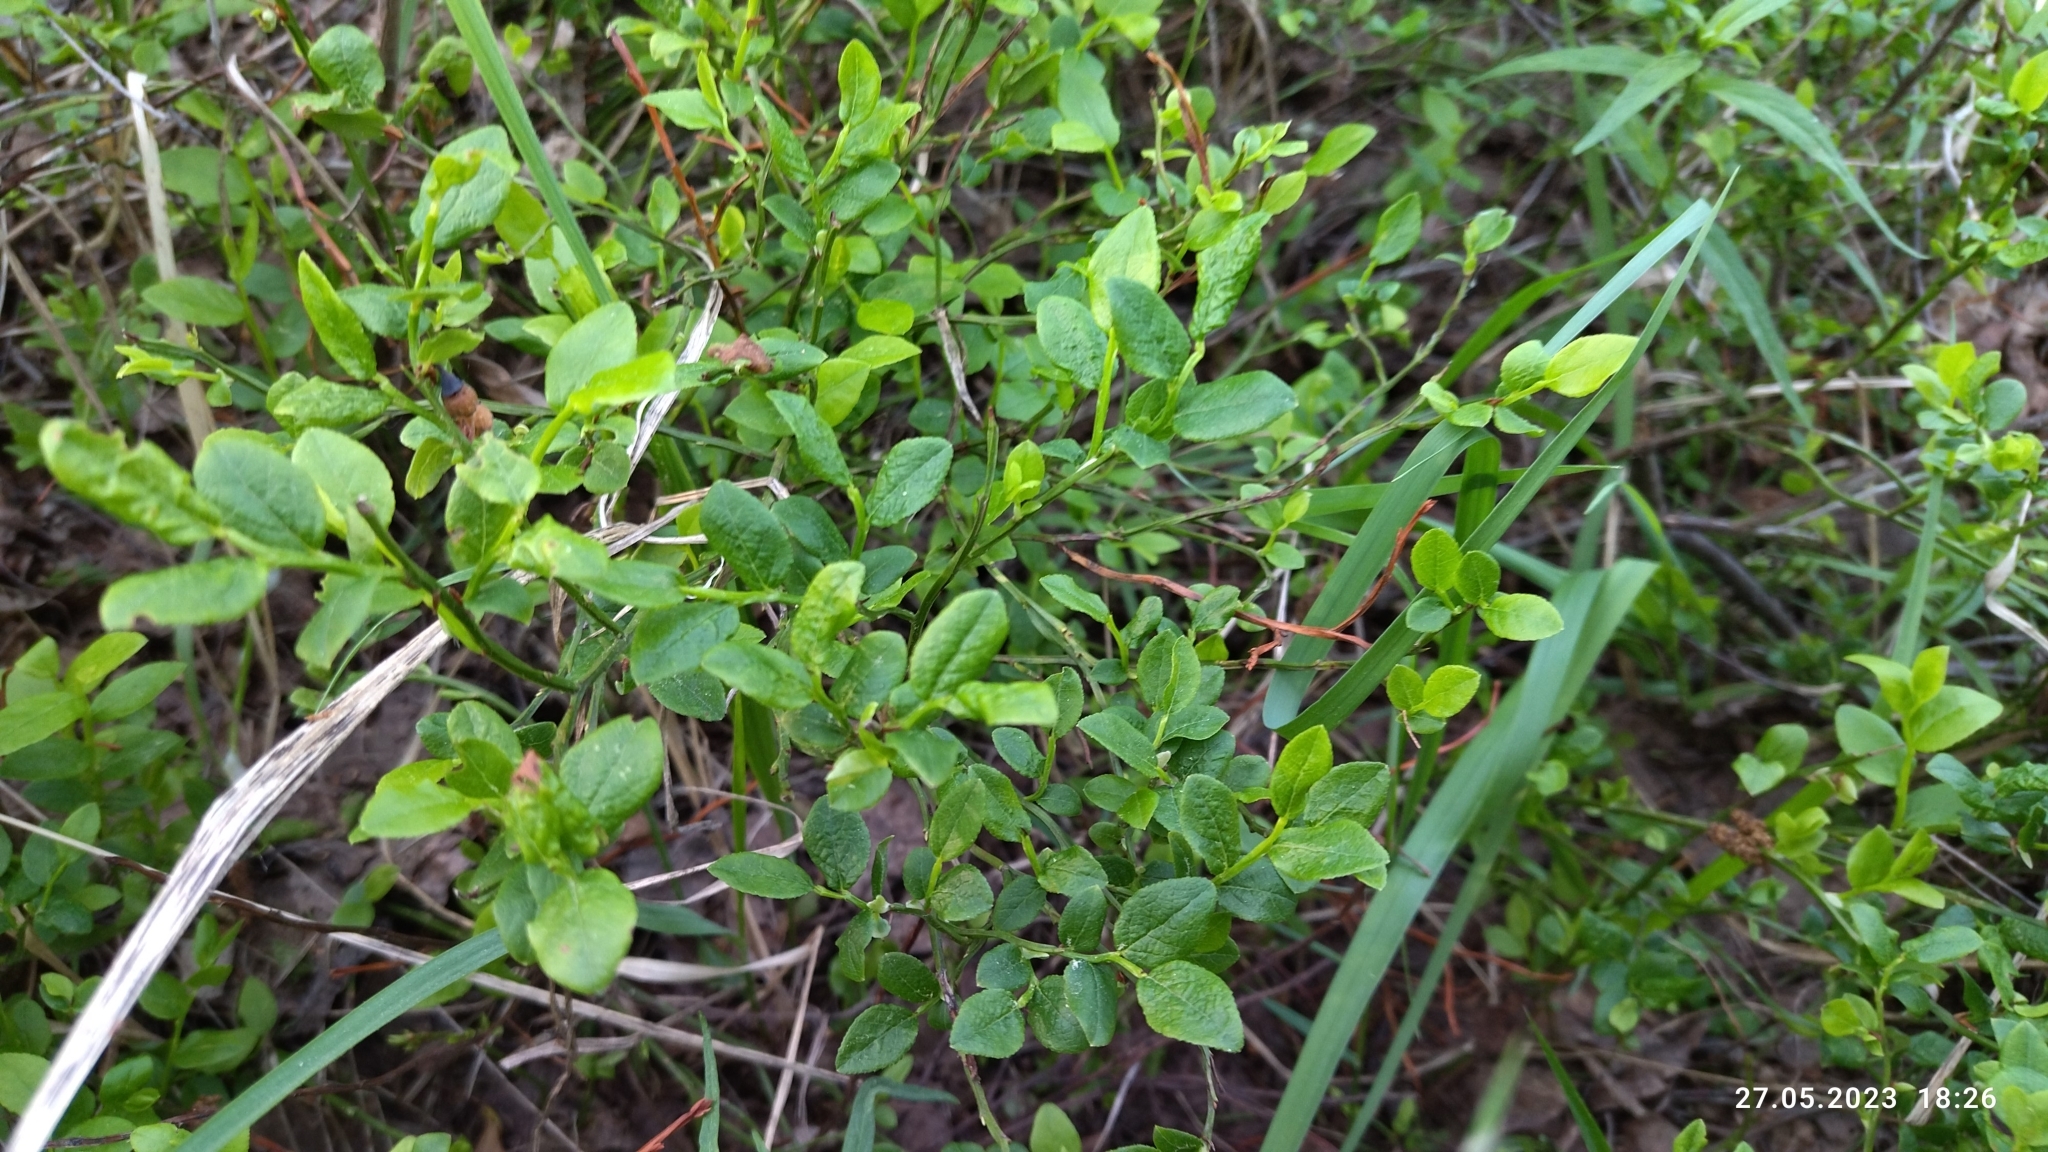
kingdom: Plantae
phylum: Tracheophyta
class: Magnoliopsida
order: Ericales
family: Ericaceae
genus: Vaccinium
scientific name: Vaccinium myrtillus
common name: Bilberry
